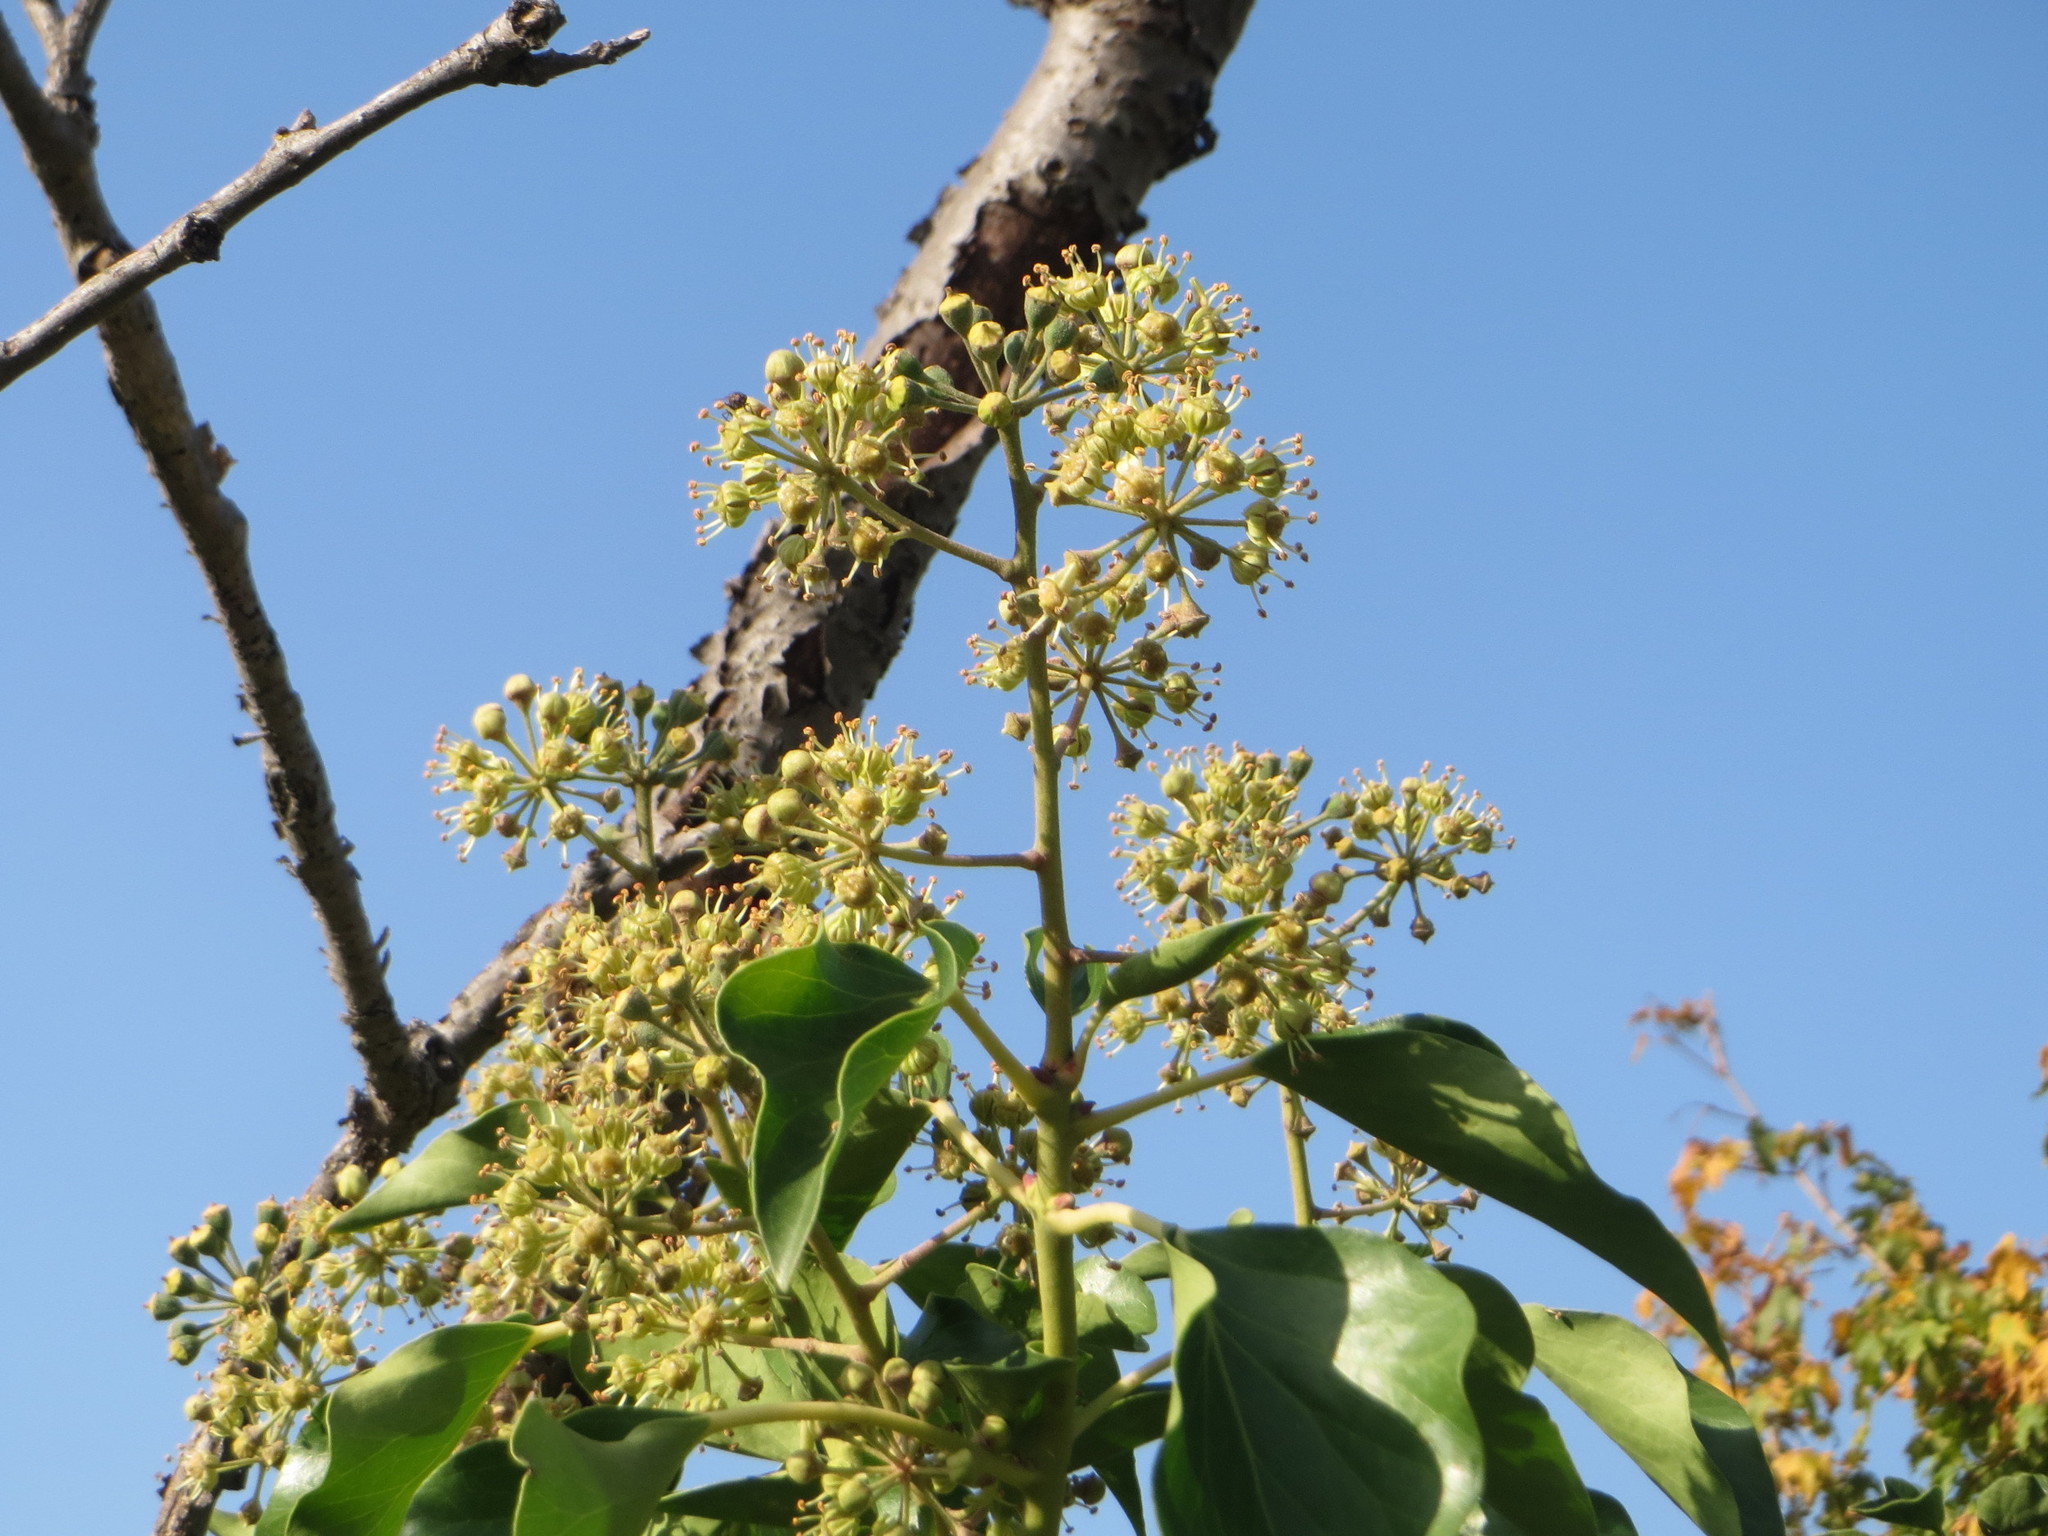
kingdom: Plantae
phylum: Tracheophyta
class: Magnoliopsida
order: Apiales
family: Araliaceae
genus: Hedera
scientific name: Hedera helix
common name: Ivy
